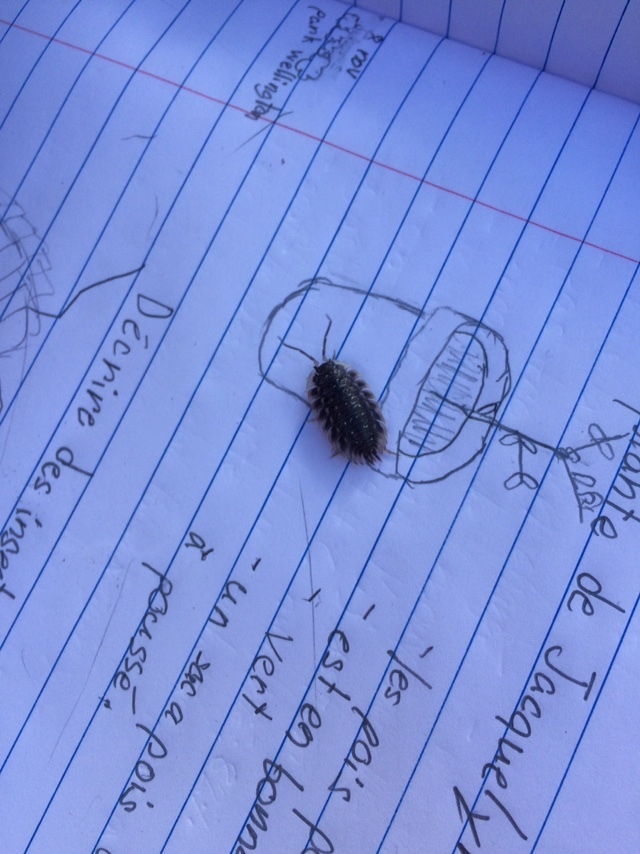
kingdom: Animalia
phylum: Arthropoda
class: Malacostraca
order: Isopoda
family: Oniscidae
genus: Oniscus
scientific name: Oniscus asellus
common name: Common shiny woodlouse
